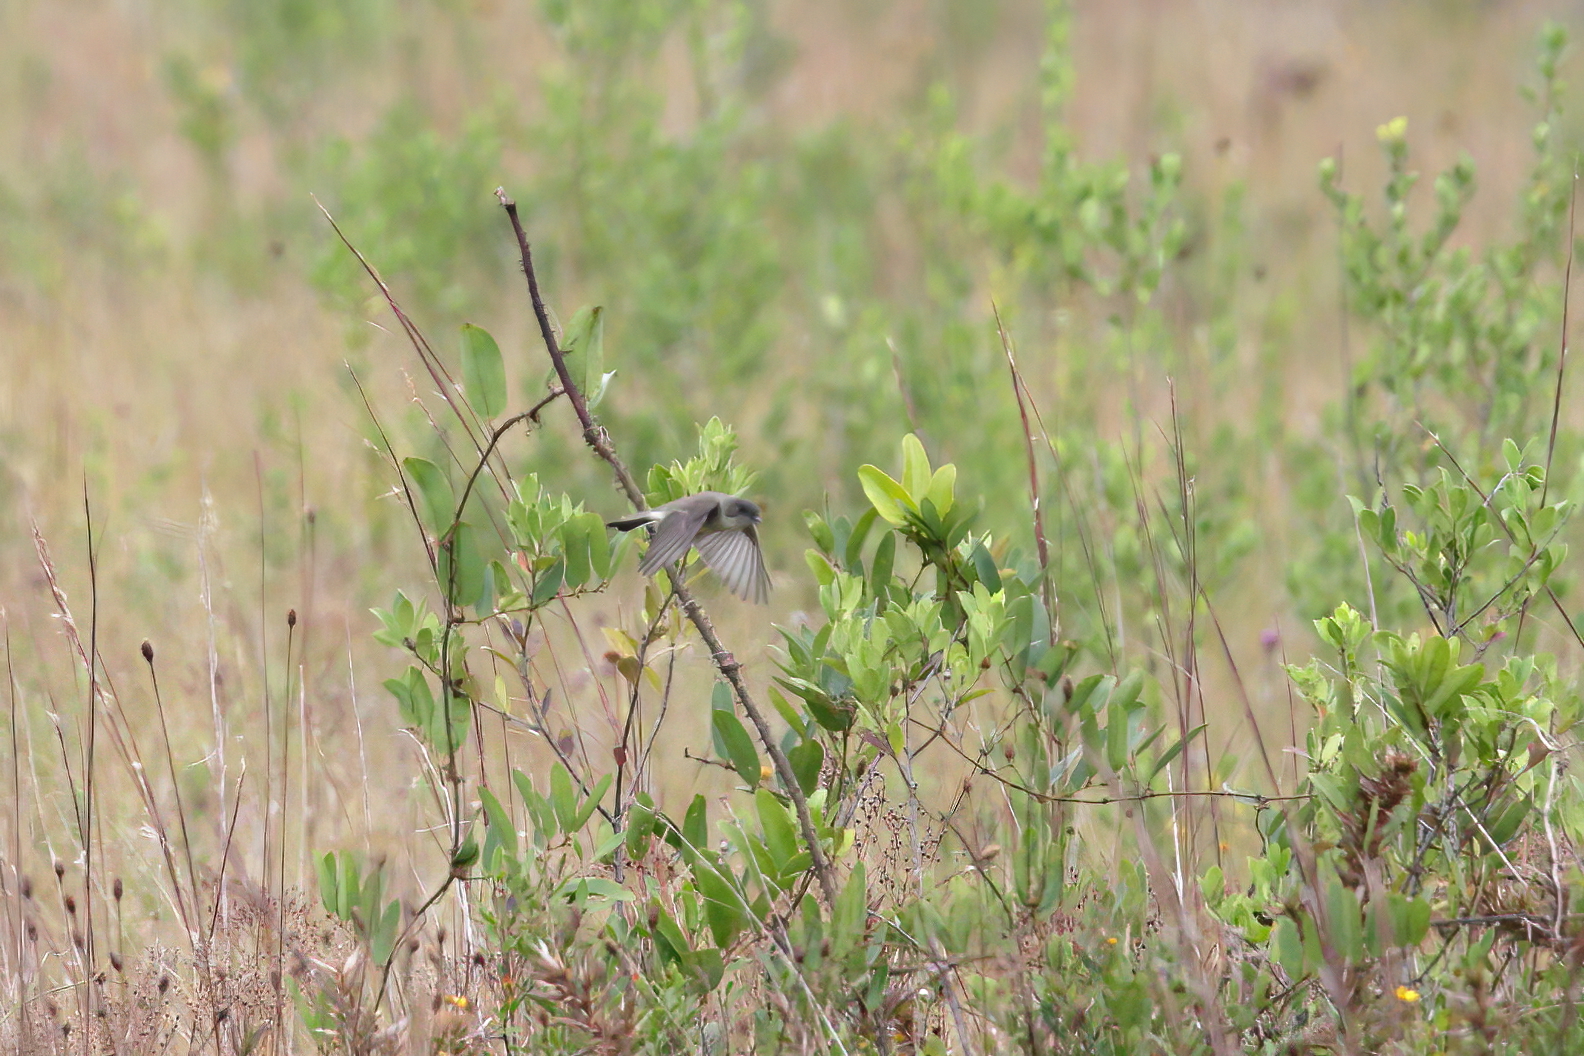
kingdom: Animalia
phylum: Chordata
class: Aves
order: Passeriformes
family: Tyrannidae
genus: Sayornis
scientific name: Sayornis phoebe
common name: Eastern phoebe
